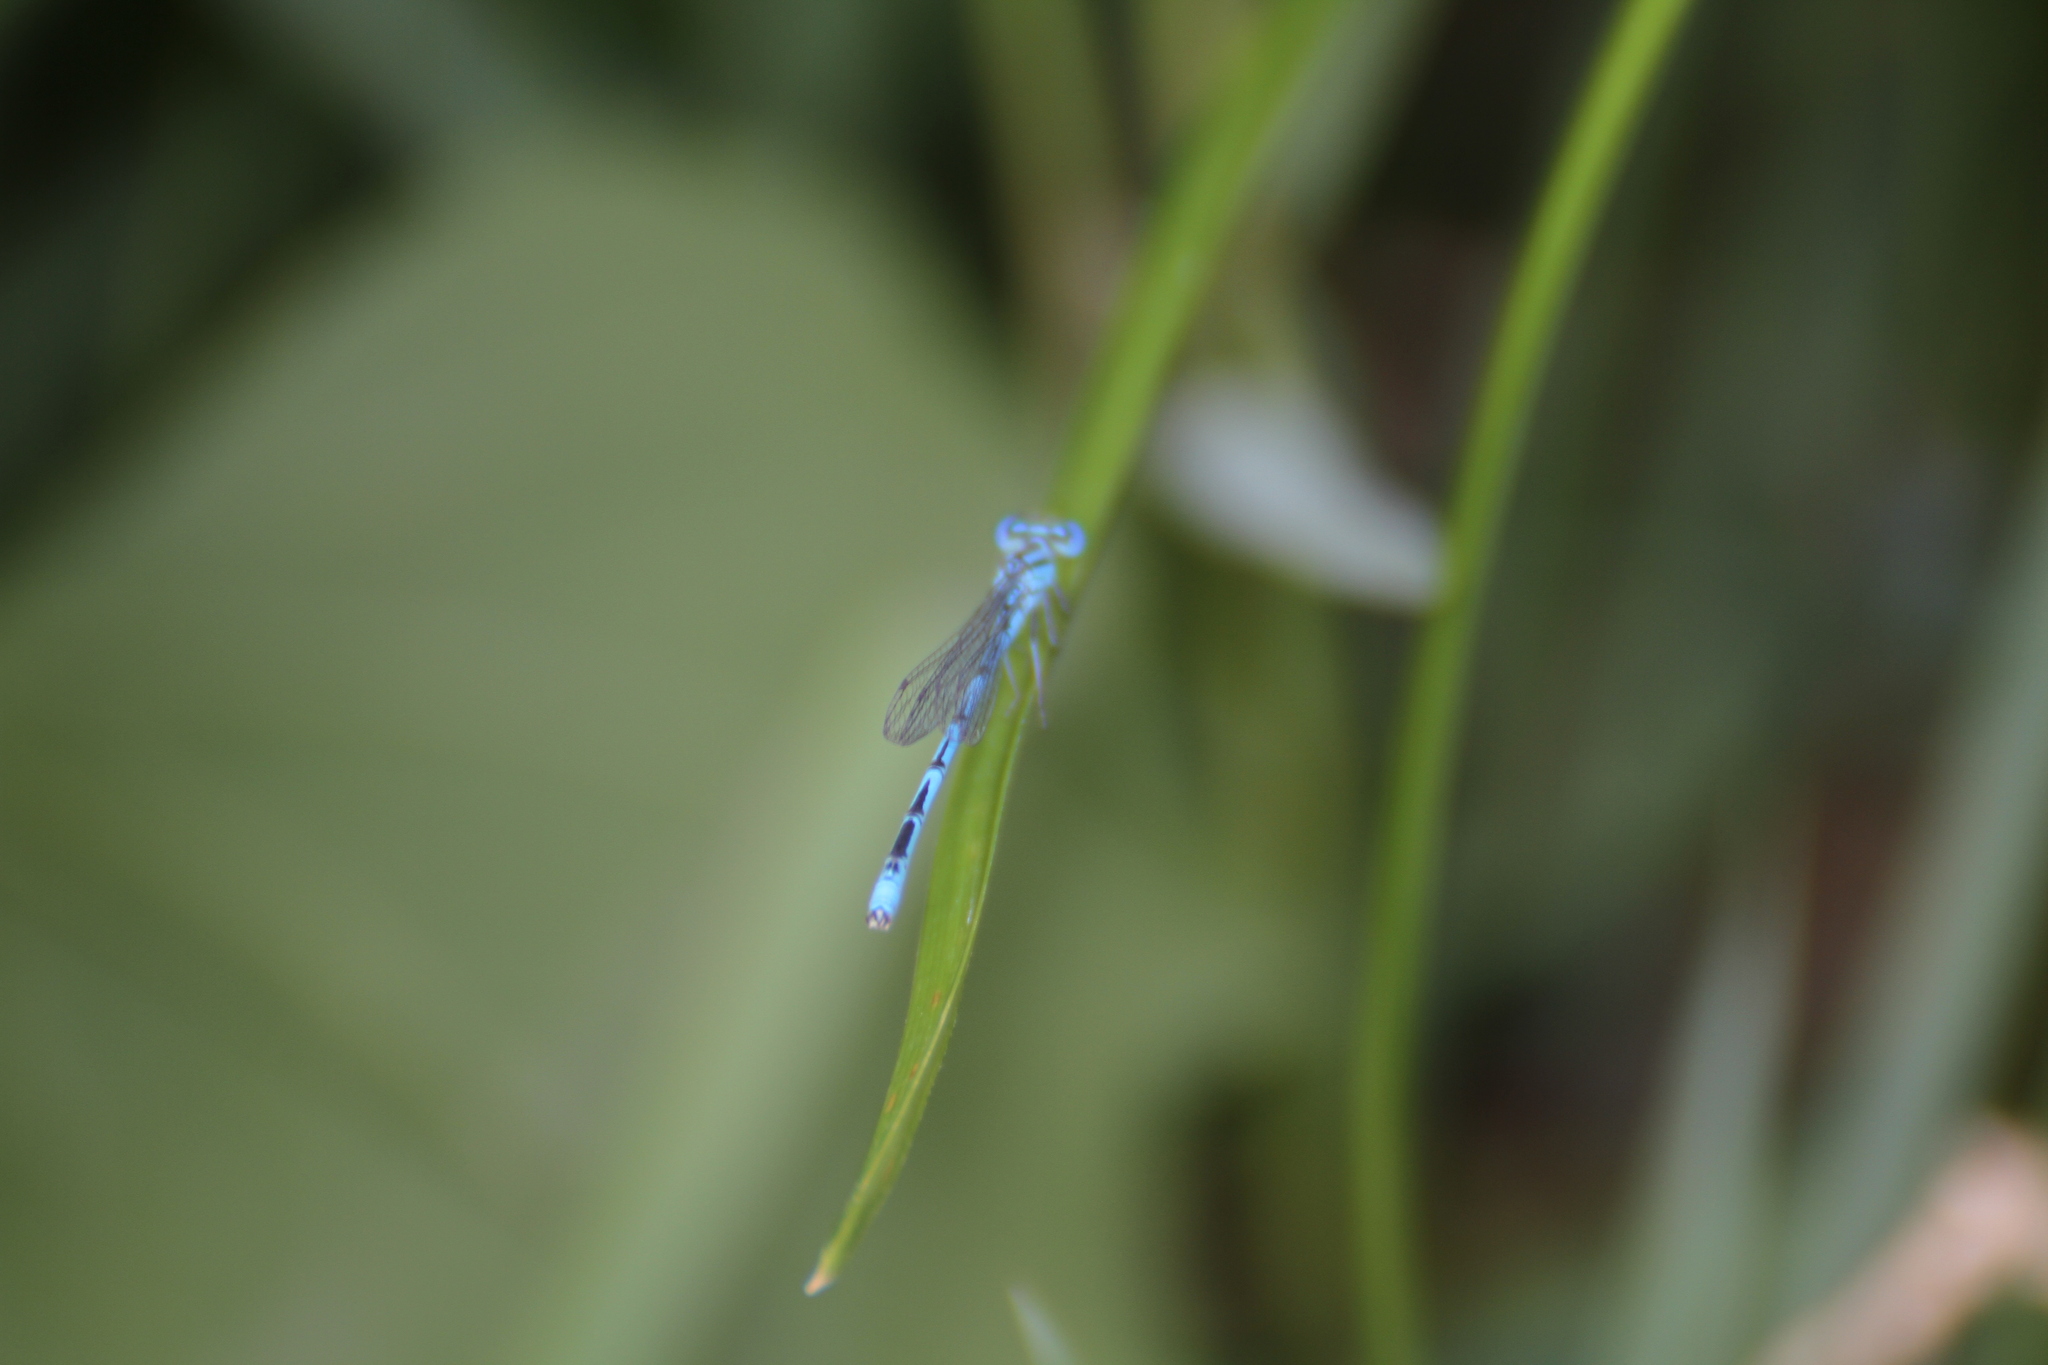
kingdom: Animalia
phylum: Arthropoda
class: Insecta
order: Odonata
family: Coenagrionidae
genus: Erythromma
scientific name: Erythromma lindenii
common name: Blue-eye
